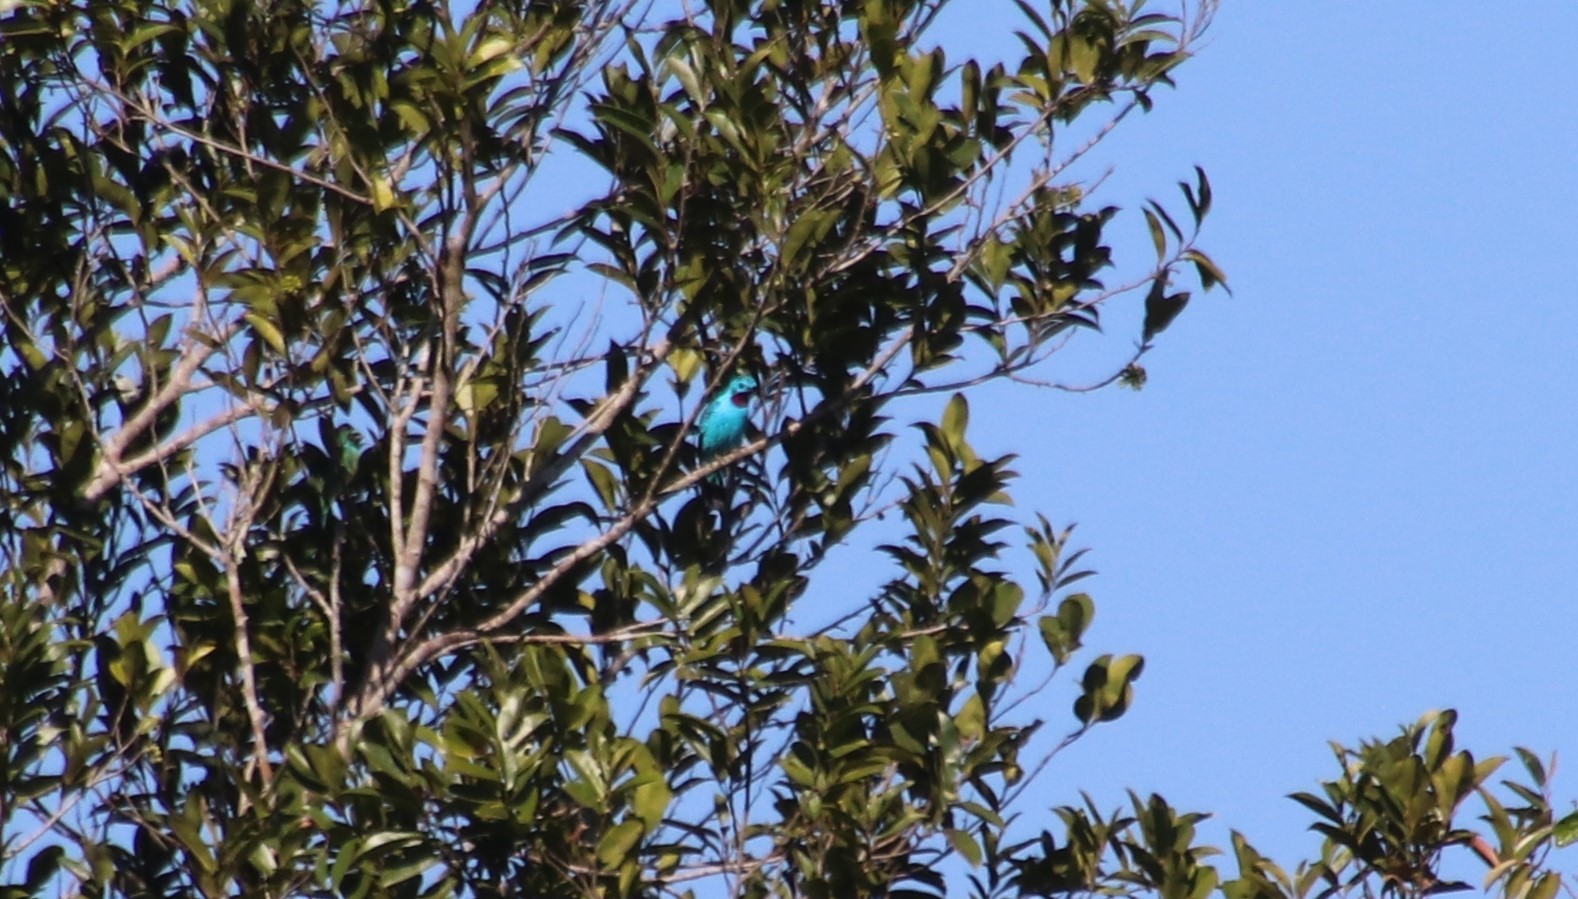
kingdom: Animalia
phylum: Chordata
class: Aves
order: Passeriformes
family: Cotingidae
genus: Cotinga
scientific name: Cotinga cayana
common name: Spangled cotinga
